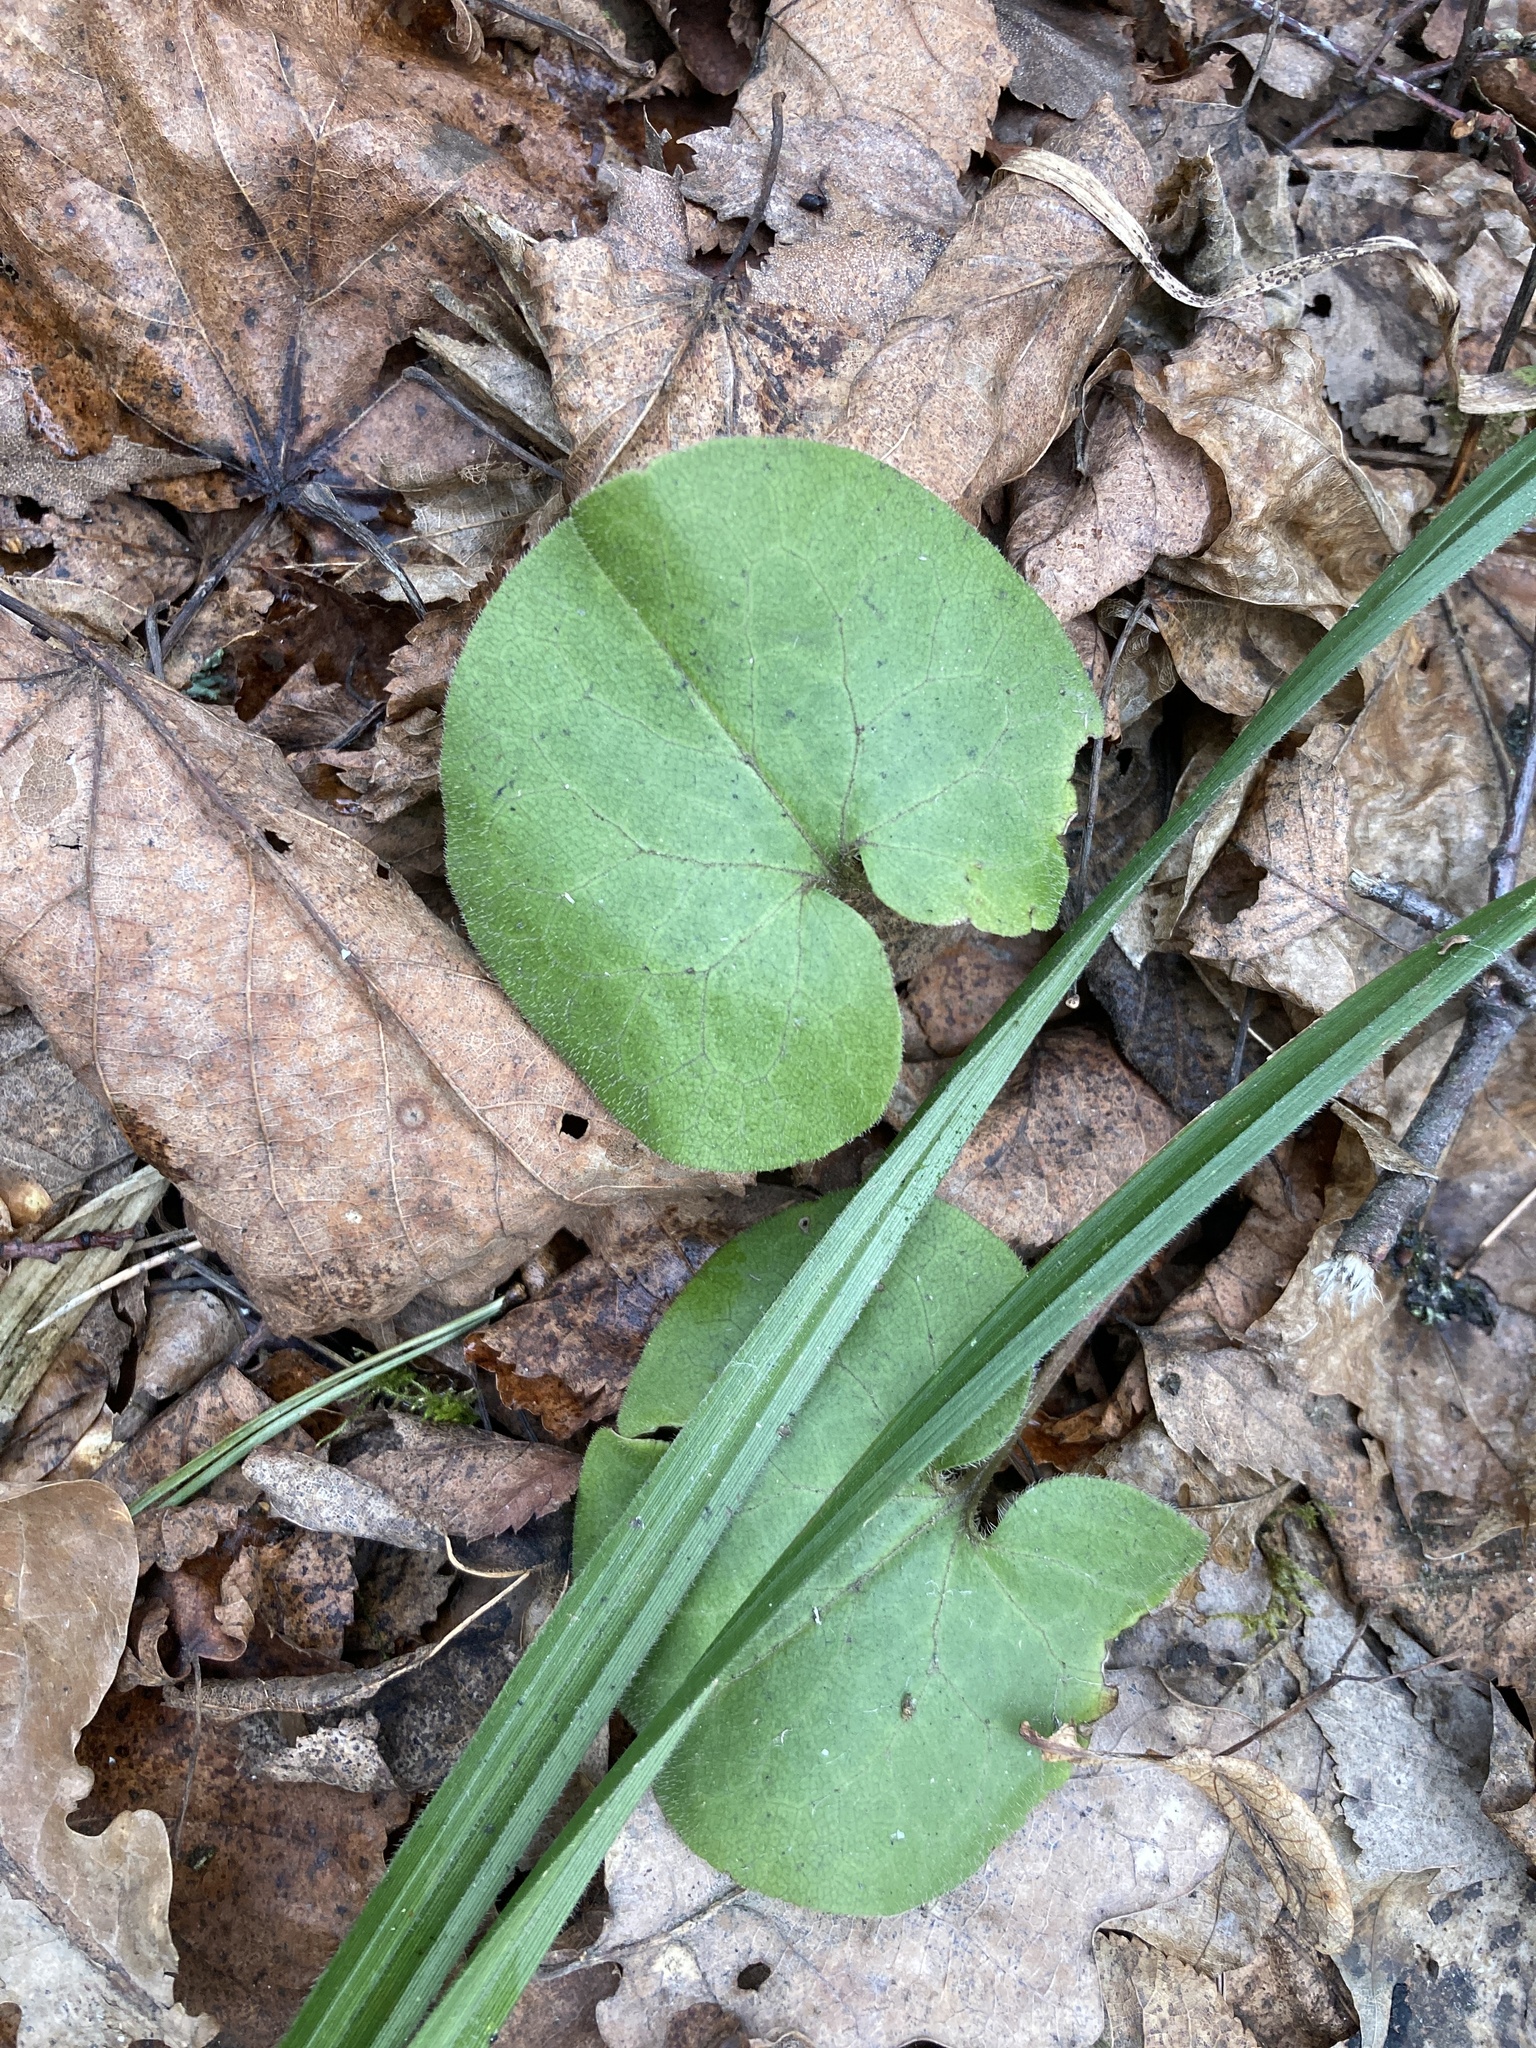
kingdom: Plantae
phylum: Tracheophyta
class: Magnoliopsida
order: Piperales
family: Aristolochiaceae
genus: Asarum
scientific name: Asarum europaeum
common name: Asarabacca
